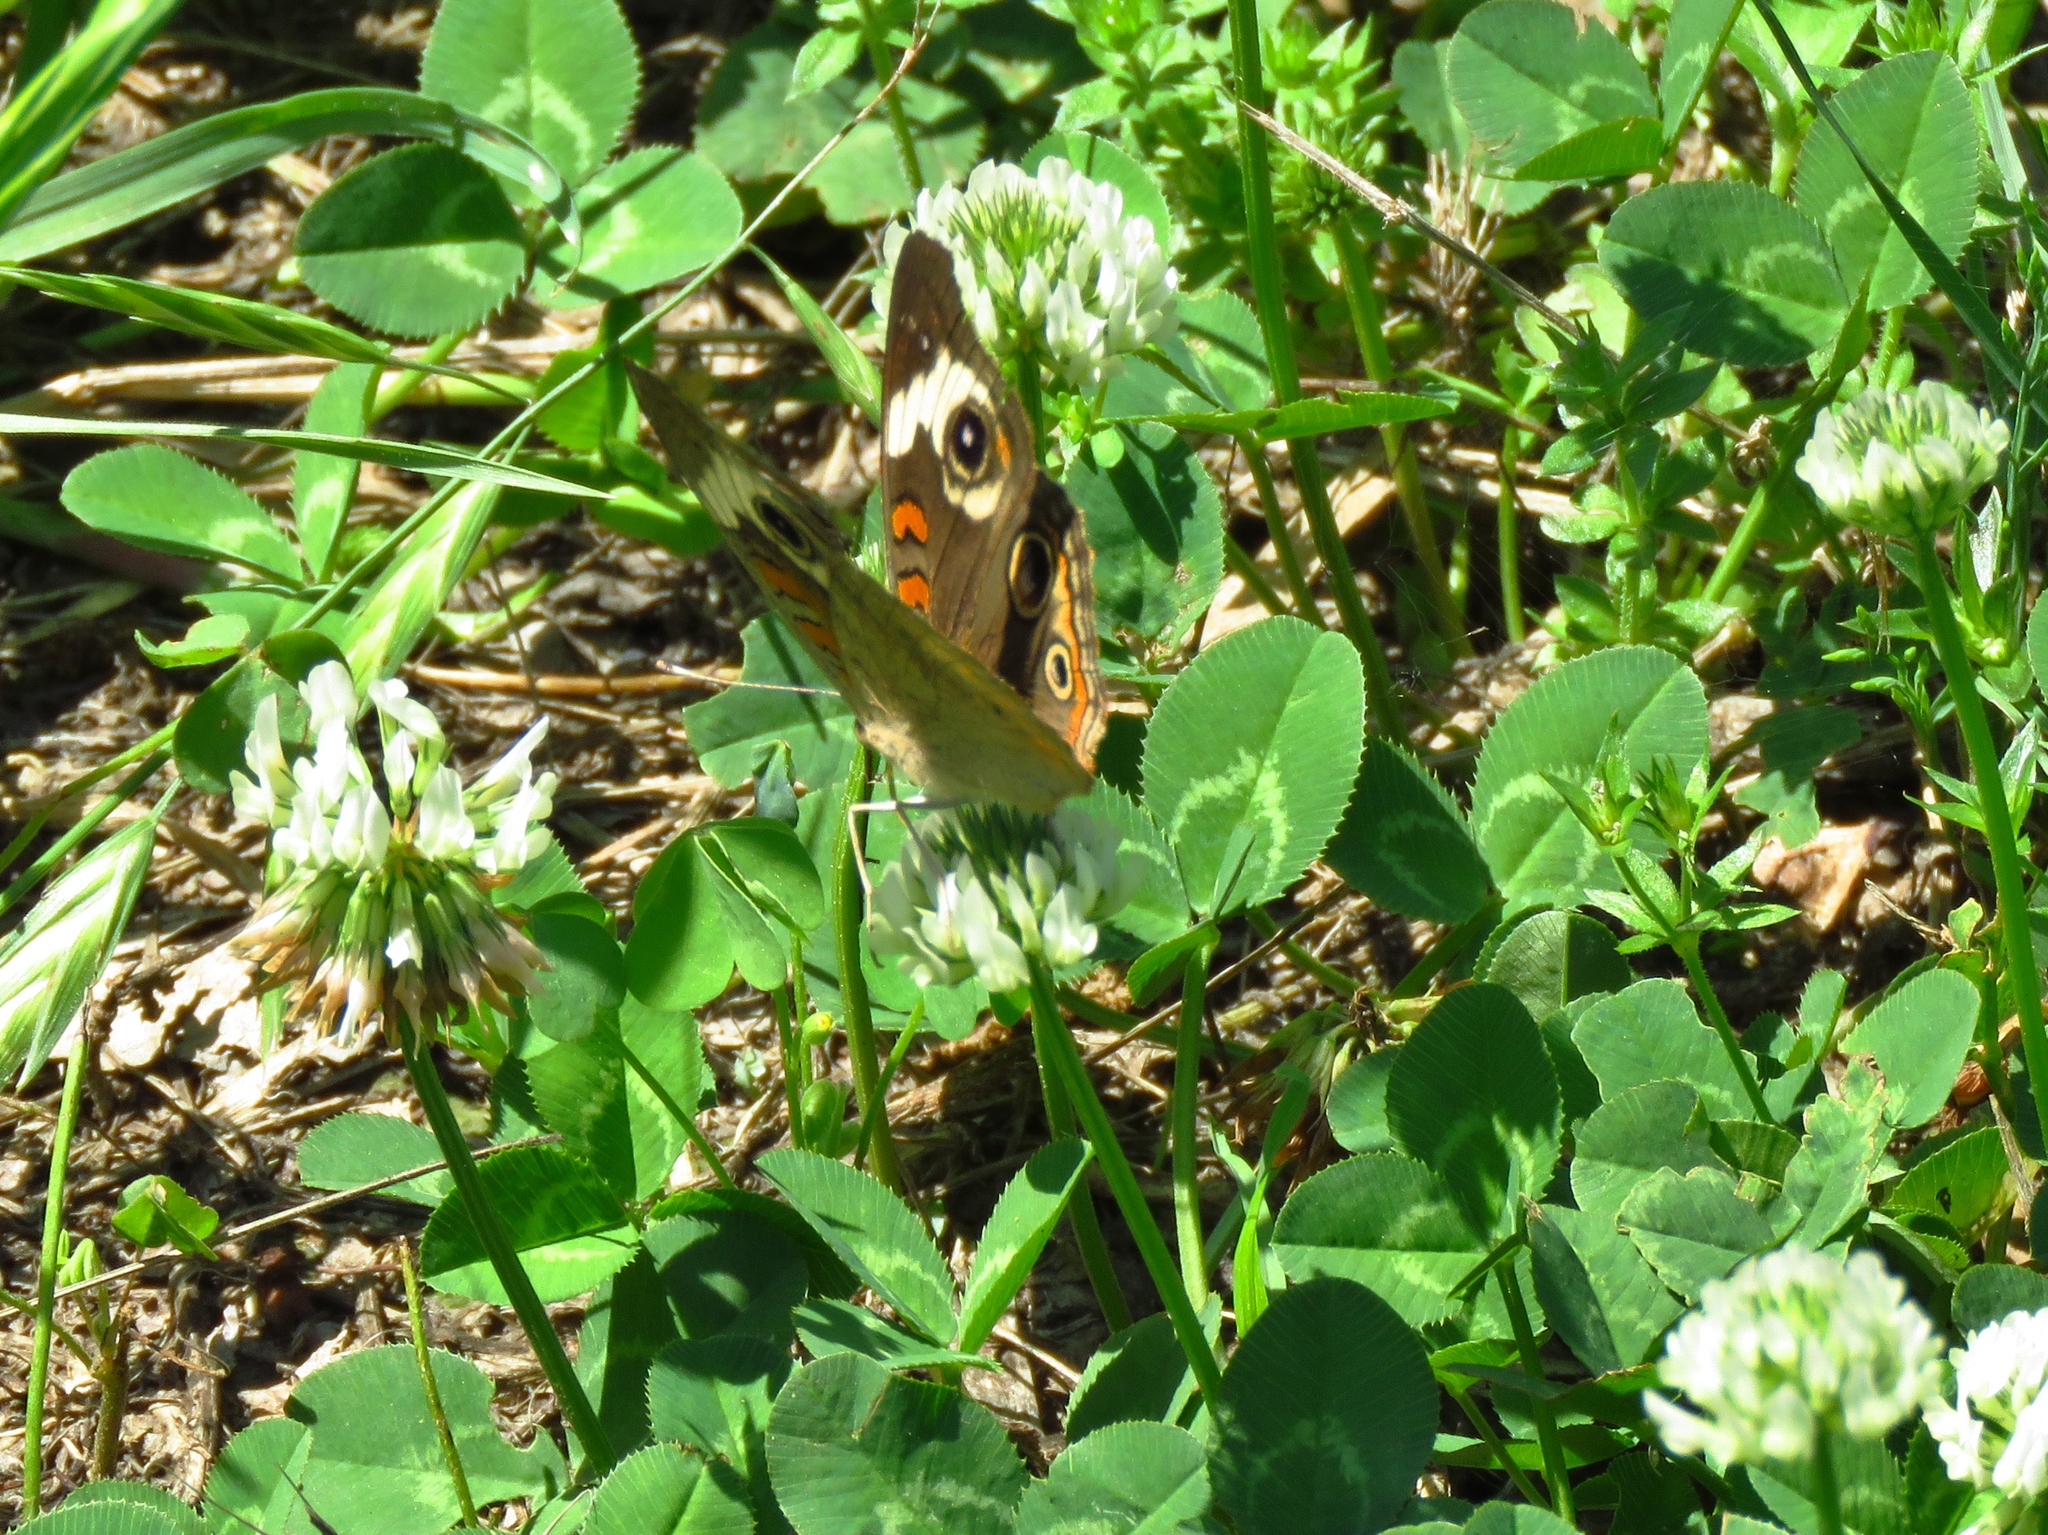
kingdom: Animalia
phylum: Arthropoda
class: Insecta
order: Lepidoptera
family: Nymphalidae
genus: Junonia
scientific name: Junonia coenia
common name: Common buckeye
